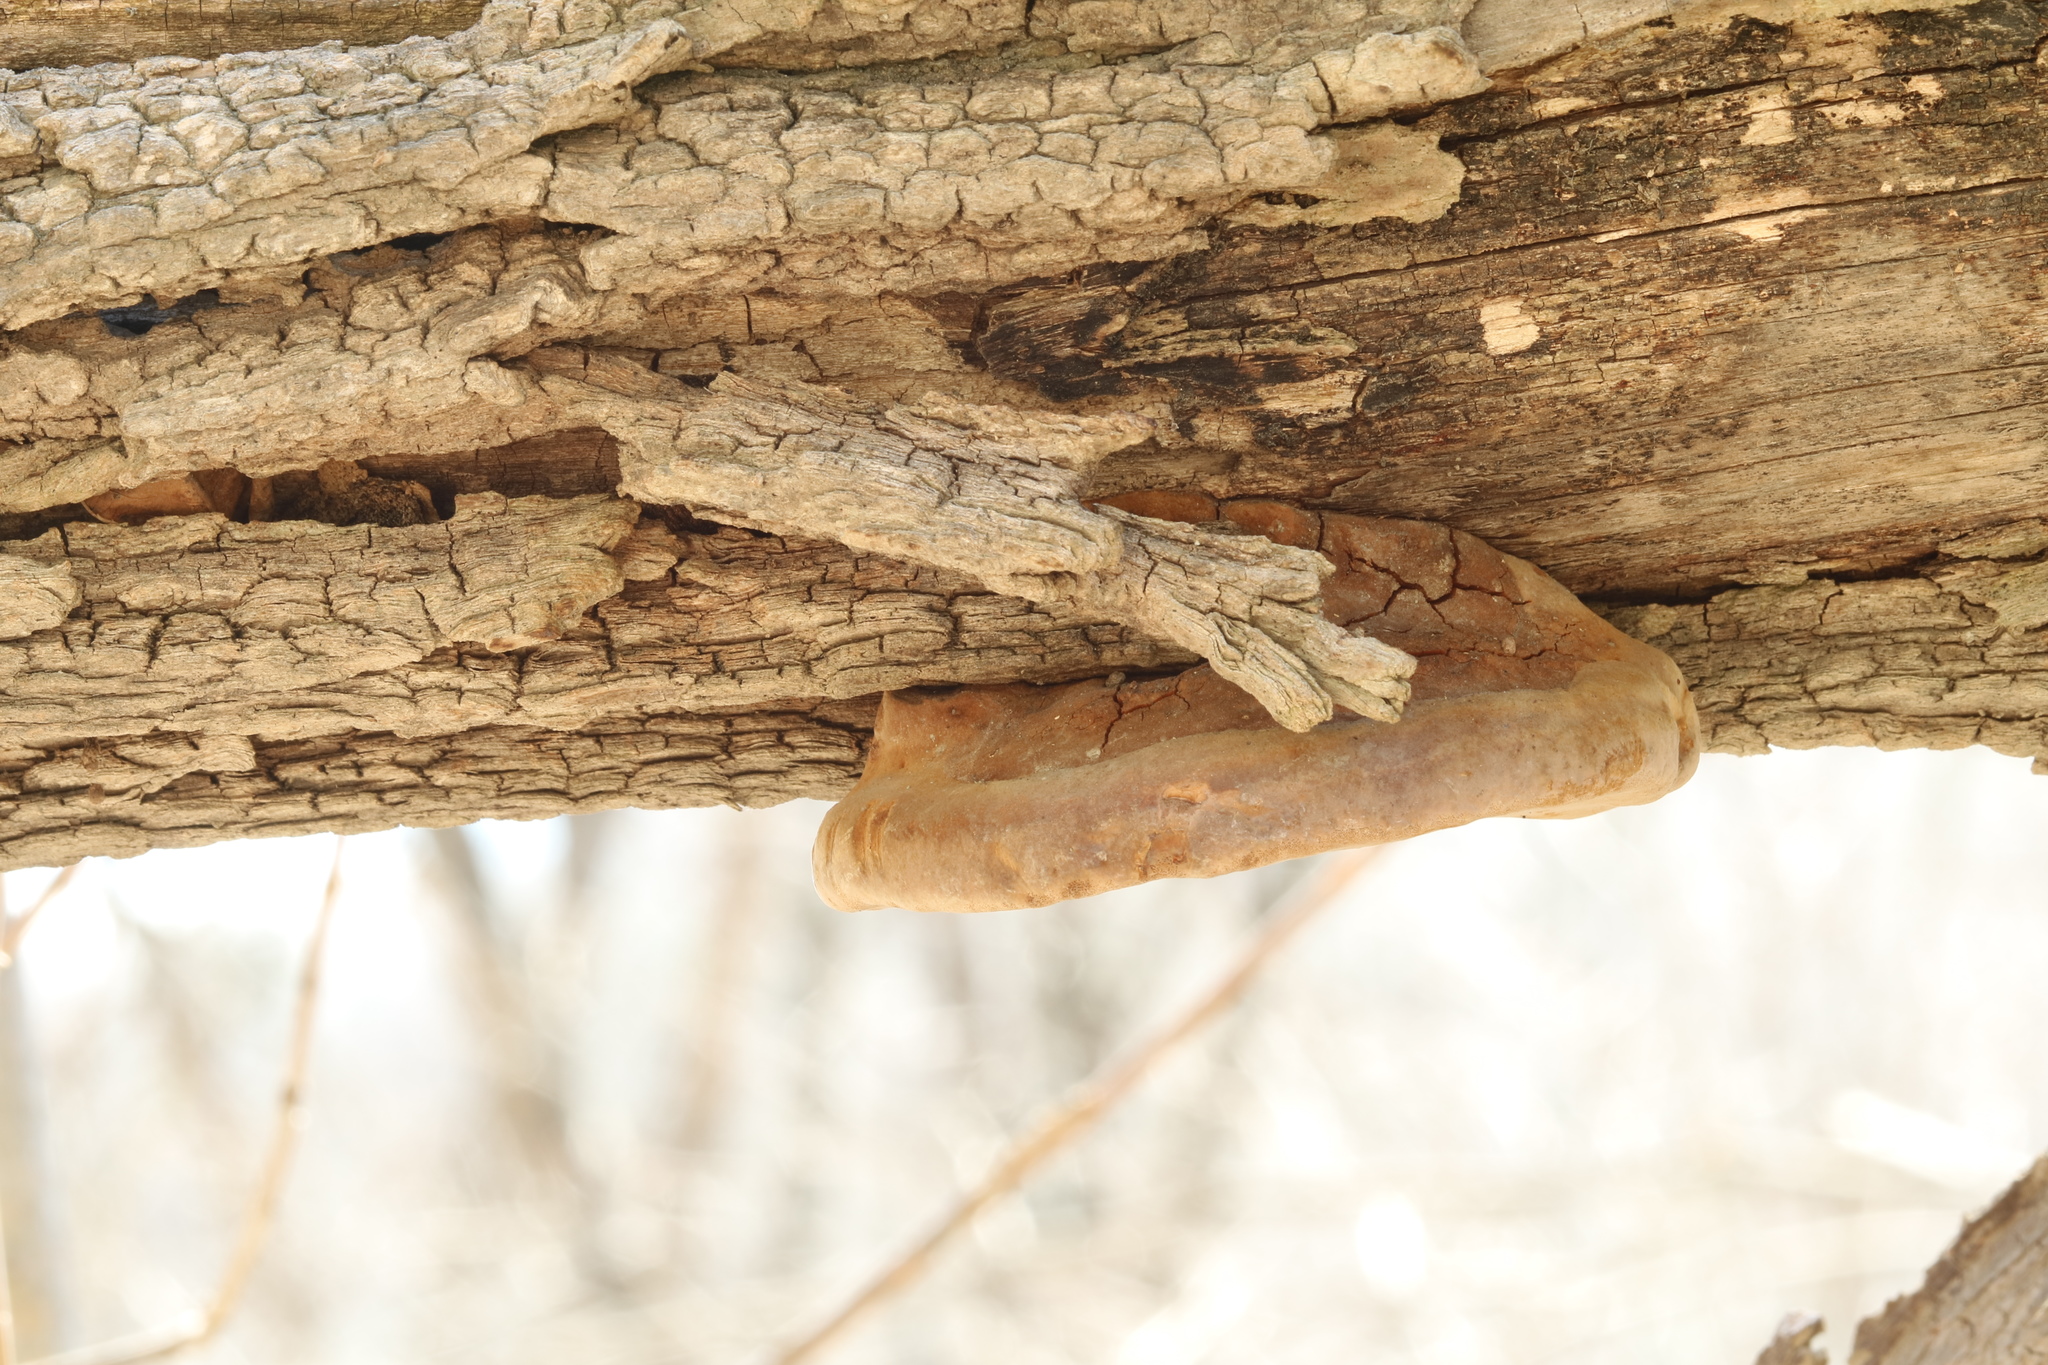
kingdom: Fungi
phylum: Basidiomycota
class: Agaricomycetes
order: Hymenochaetales
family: Hymenochaetaceae
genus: Phellinus
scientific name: Phellinus robiniae
